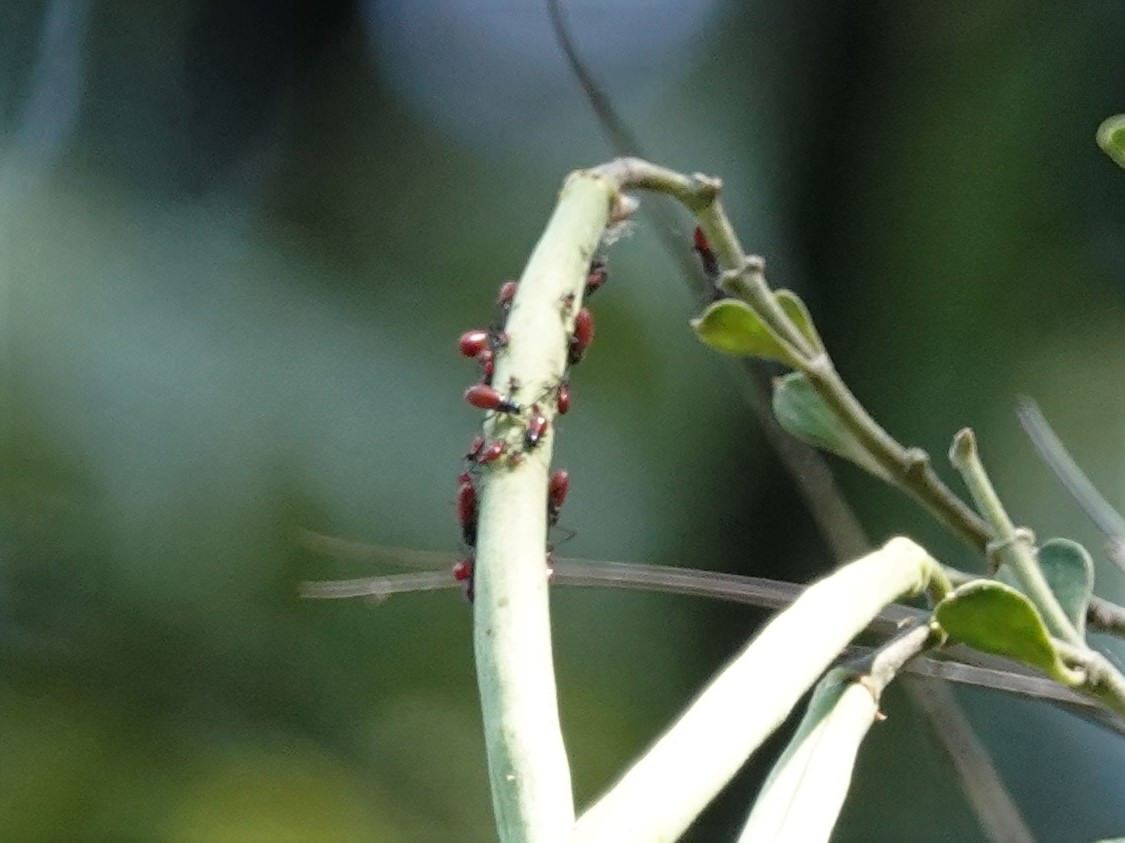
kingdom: Animalia
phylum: Arthropoda
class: Insecta
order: Hemiptera
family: Lygaeidae
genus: Arocatus
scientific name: Arocatus rusticus
